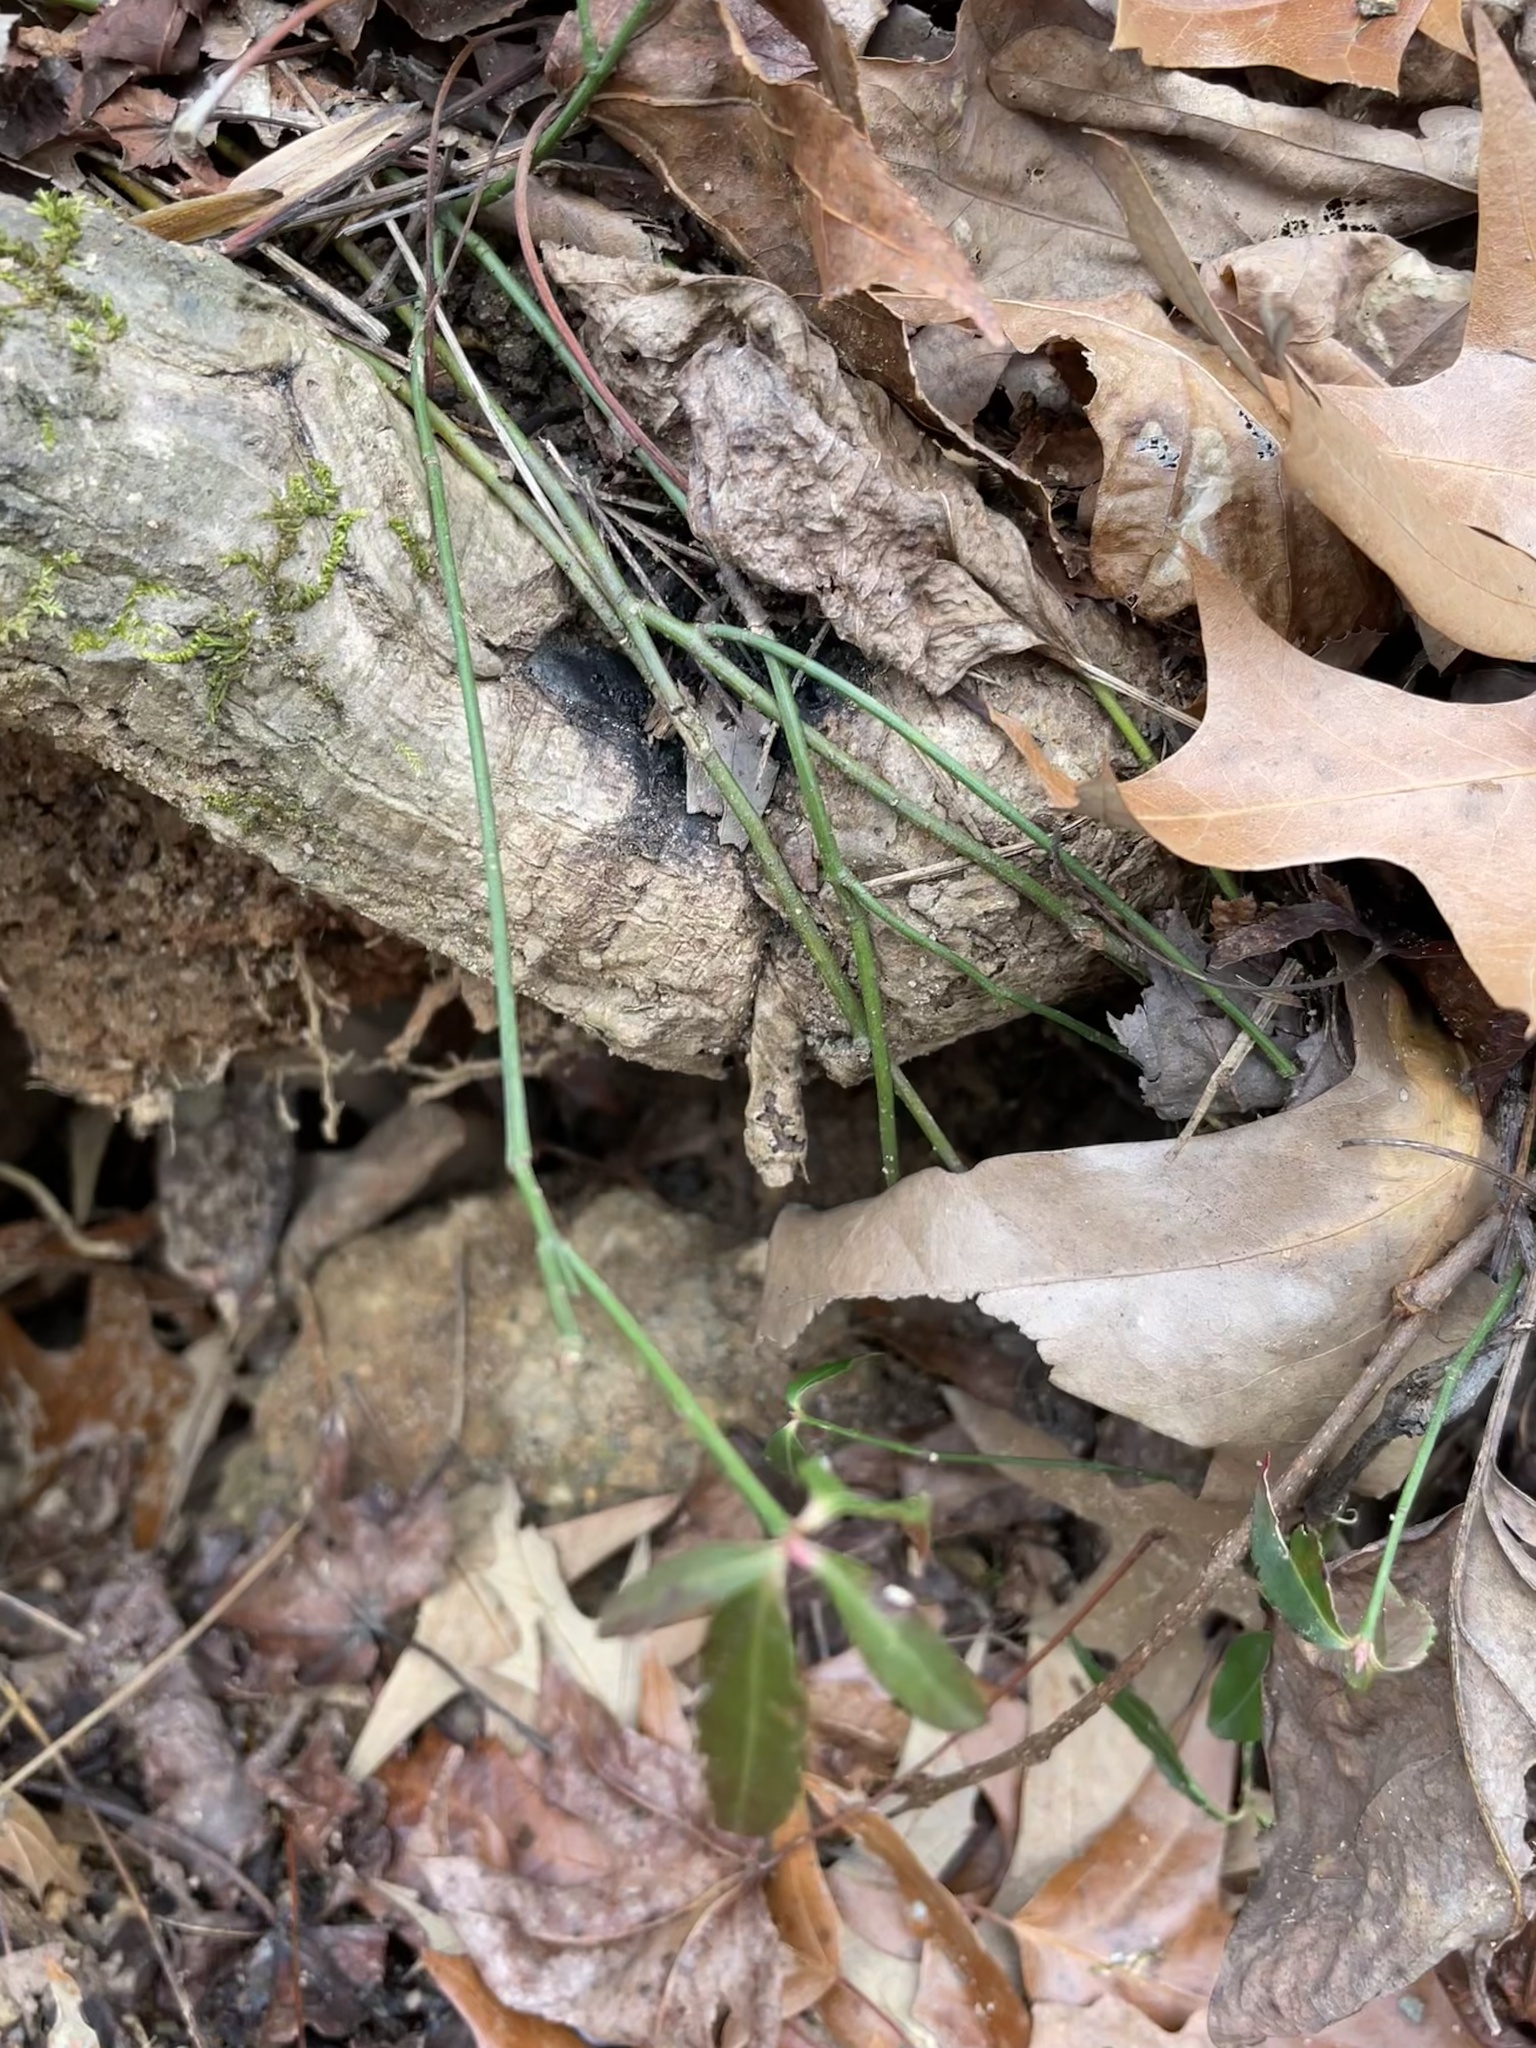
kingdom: Plantae
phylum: Tracheophyta
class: Magnoliopsida
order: Celastrales
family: Celastraceae
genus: Euonymus
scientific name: Euonymus americanus
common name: Bursting-heart
